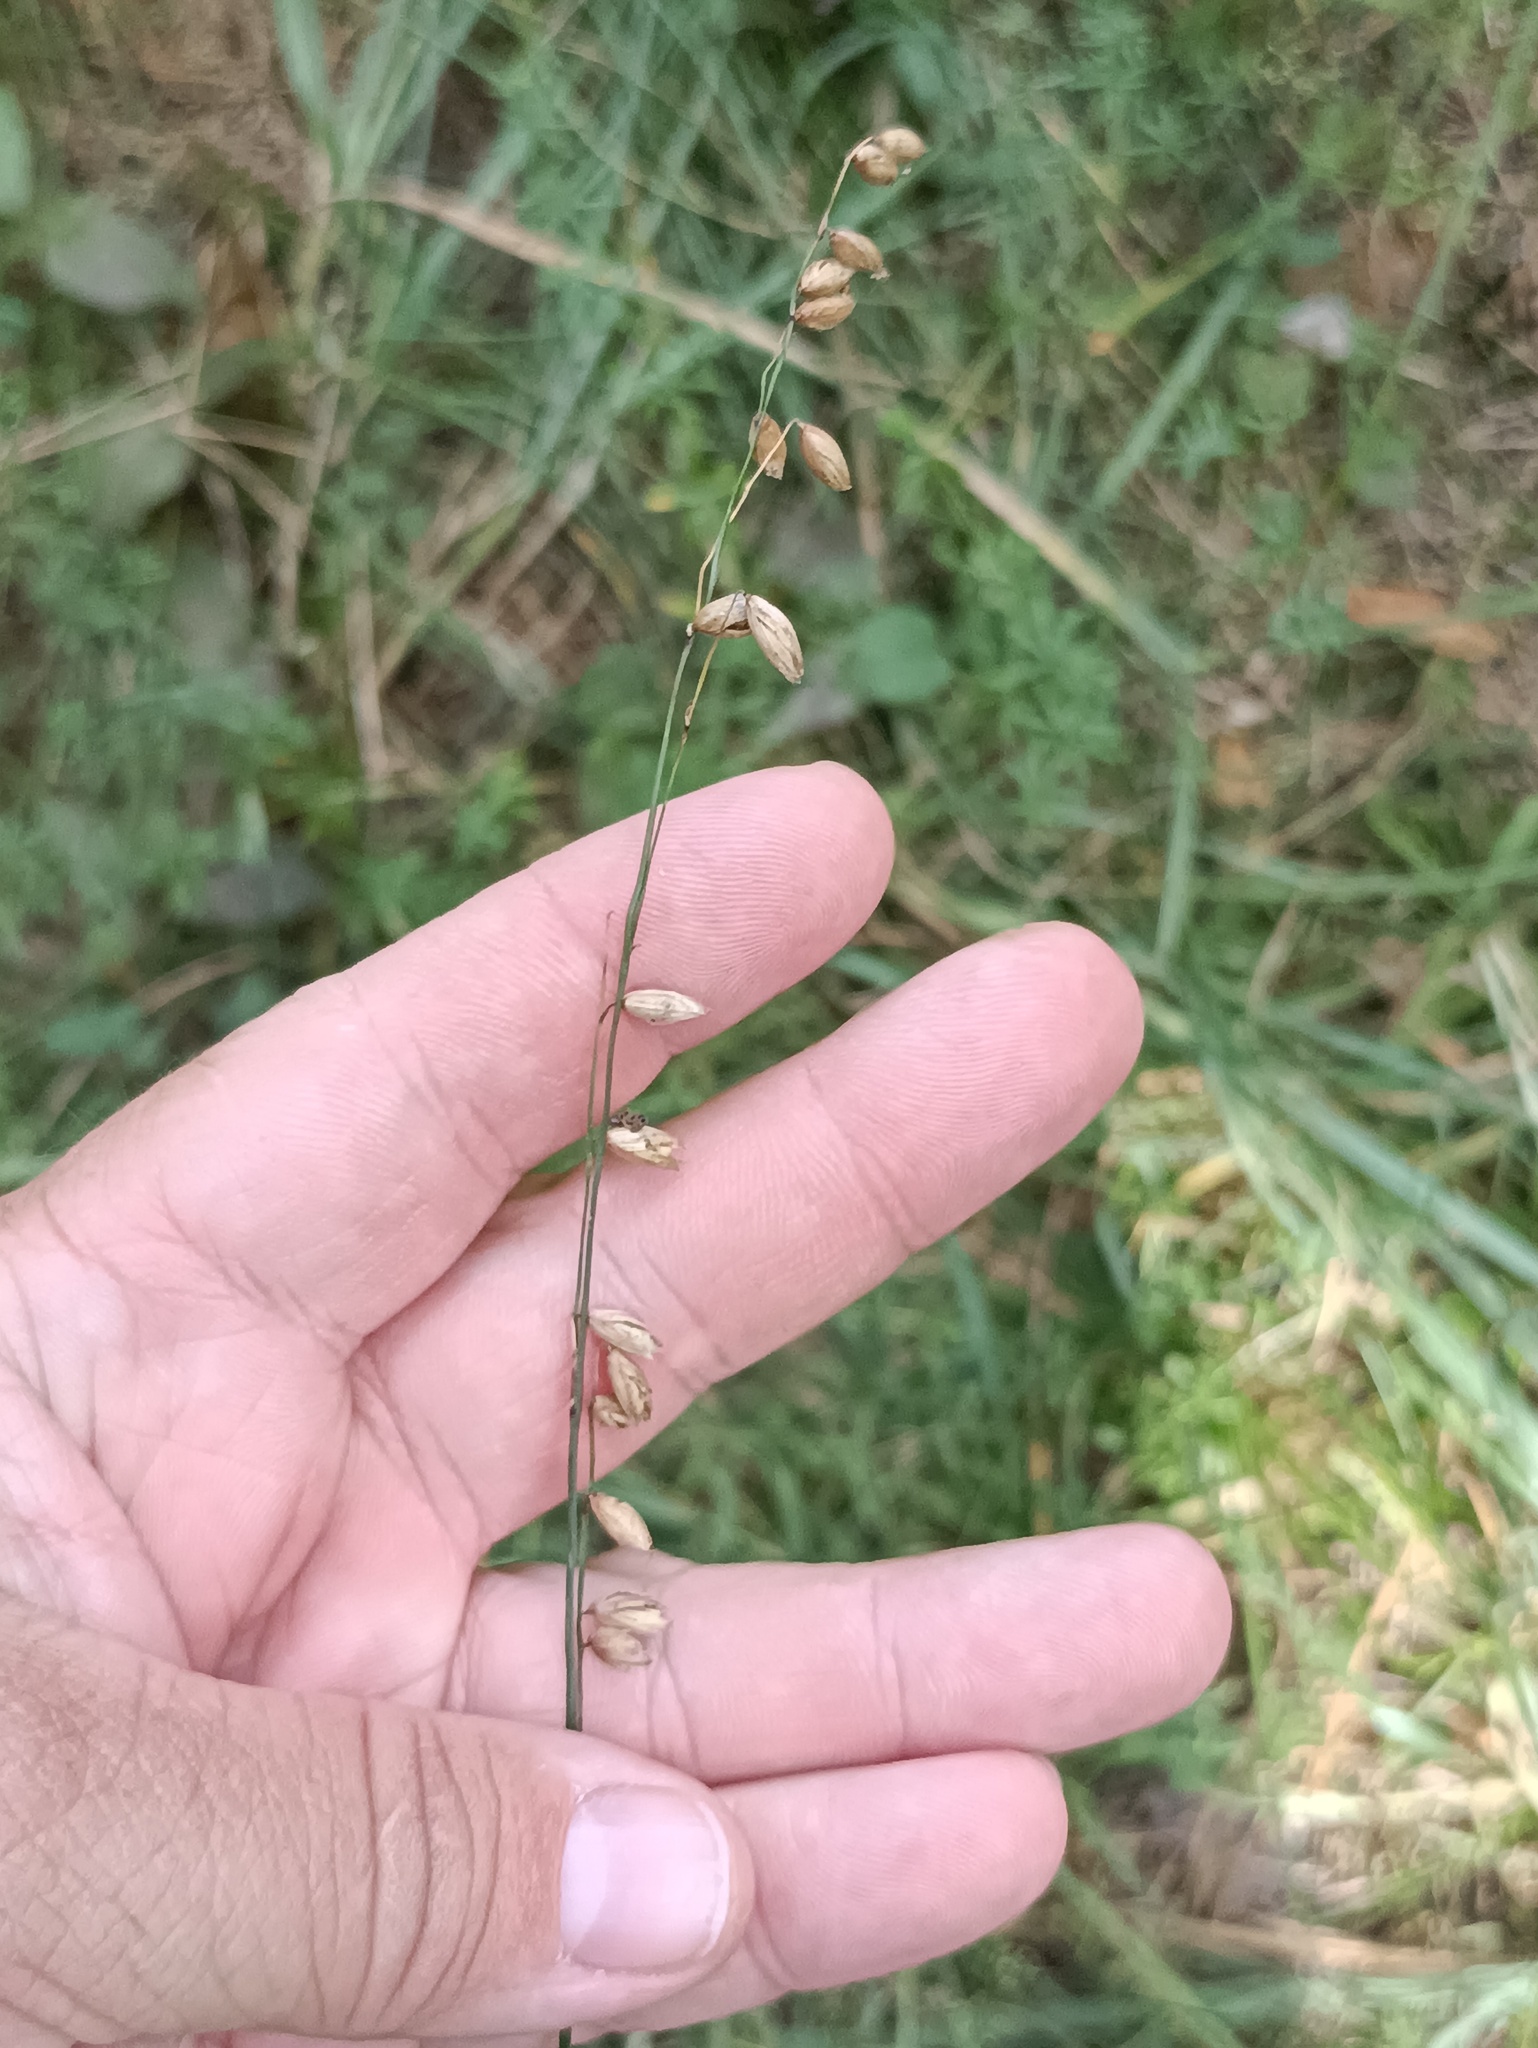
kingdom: Plantae
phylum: Tracheophyta
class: Liliopsida
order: Poales
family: Poaceae
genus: Melica
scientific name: Melica nutans
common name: Mountain melick
